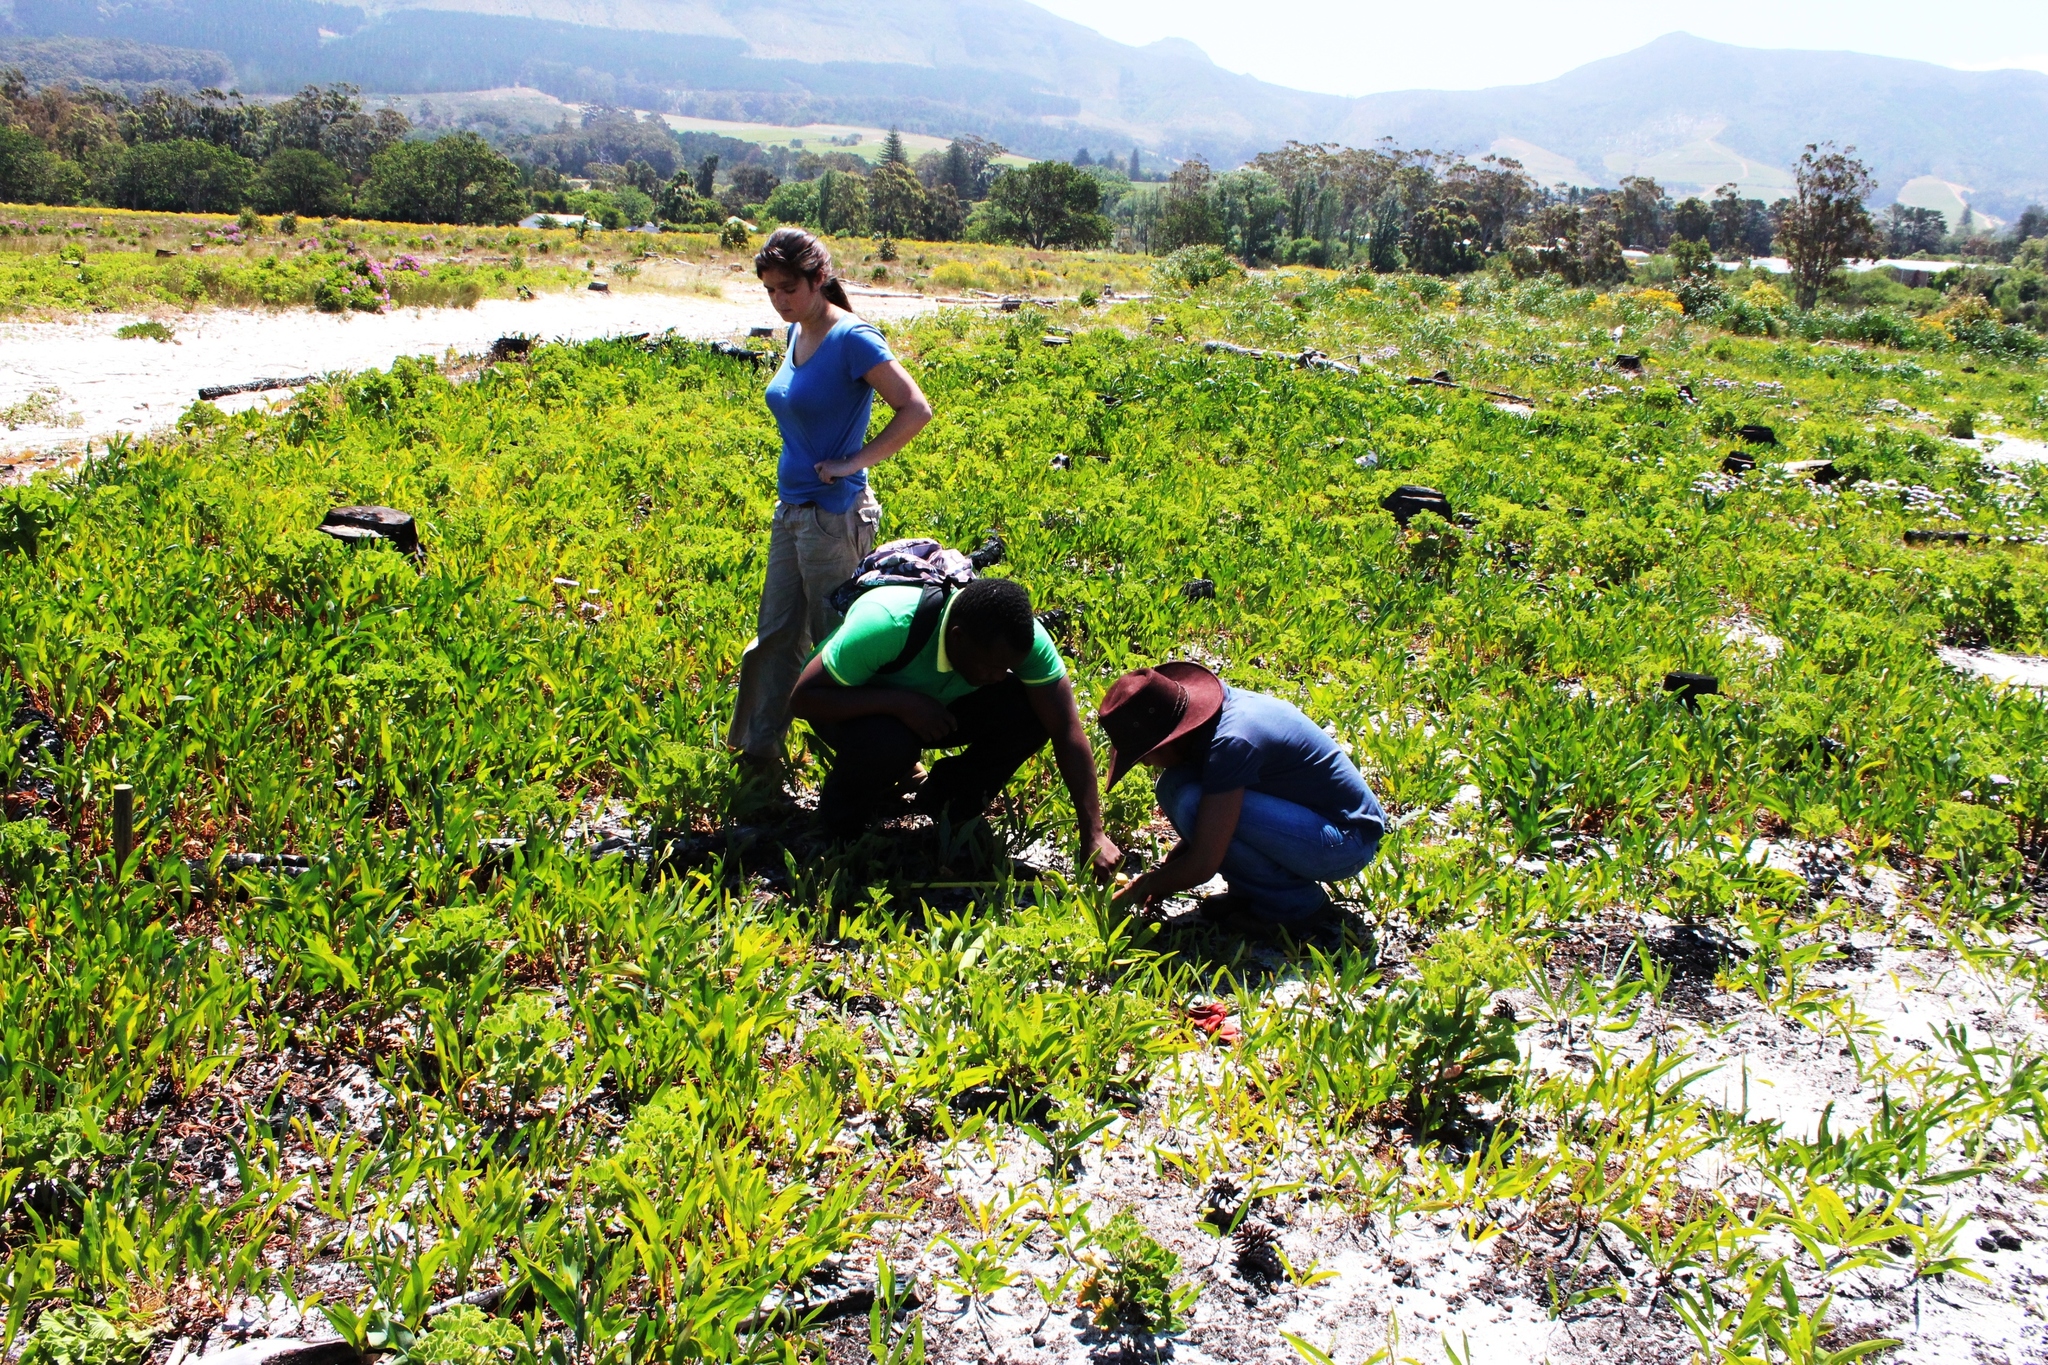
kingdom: Plantae
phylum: Tracheophyta
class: Magnoliopsida
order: Fabales
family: Fabaceae
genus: Acacia
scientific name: Acacia saligna
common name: Orange wattle
